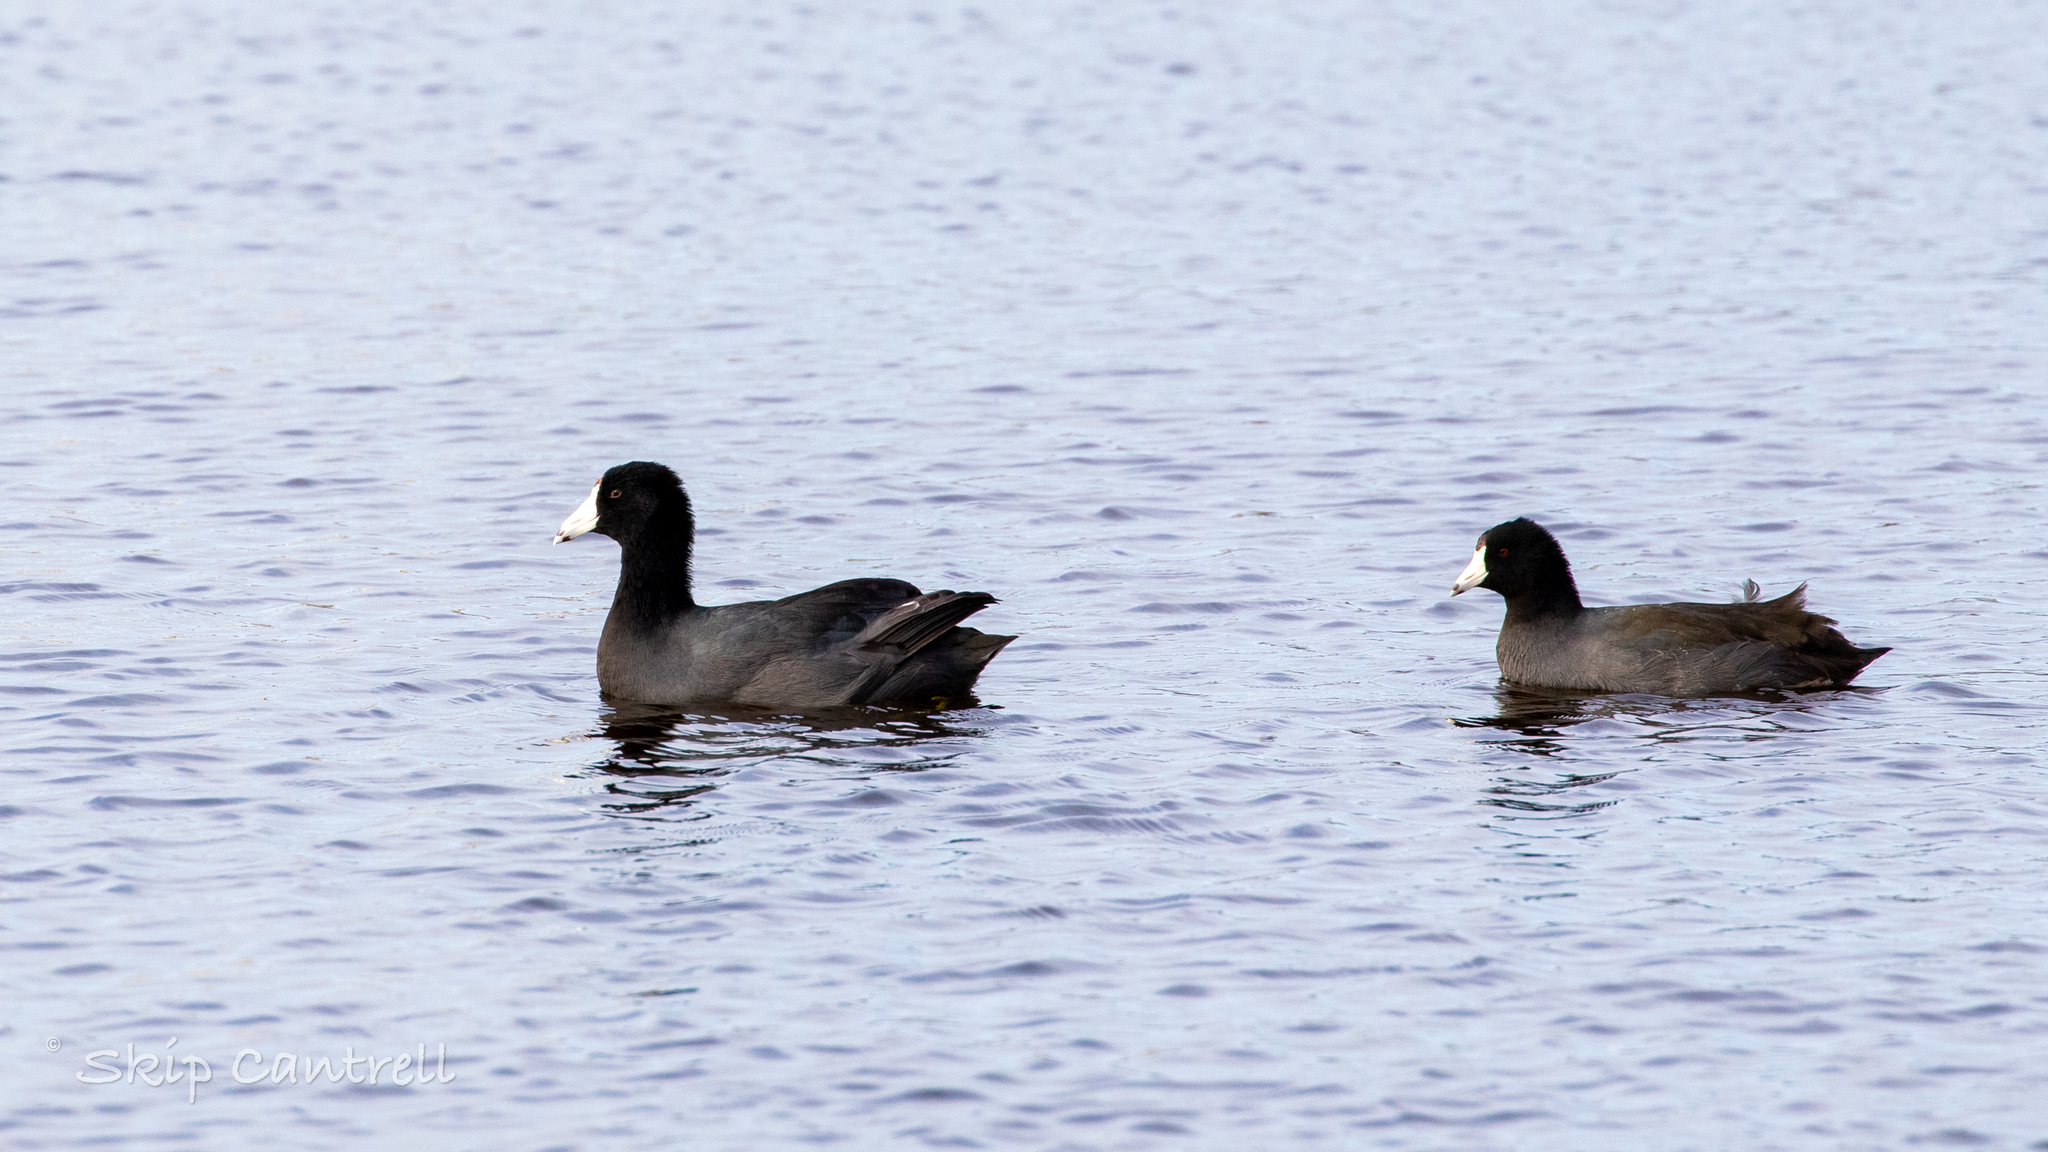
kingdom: Animalia
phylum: Chordata
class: Aves
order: Gruiformes
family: Rallidae
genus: Fulica
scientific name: Fulica americana
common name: American coot
